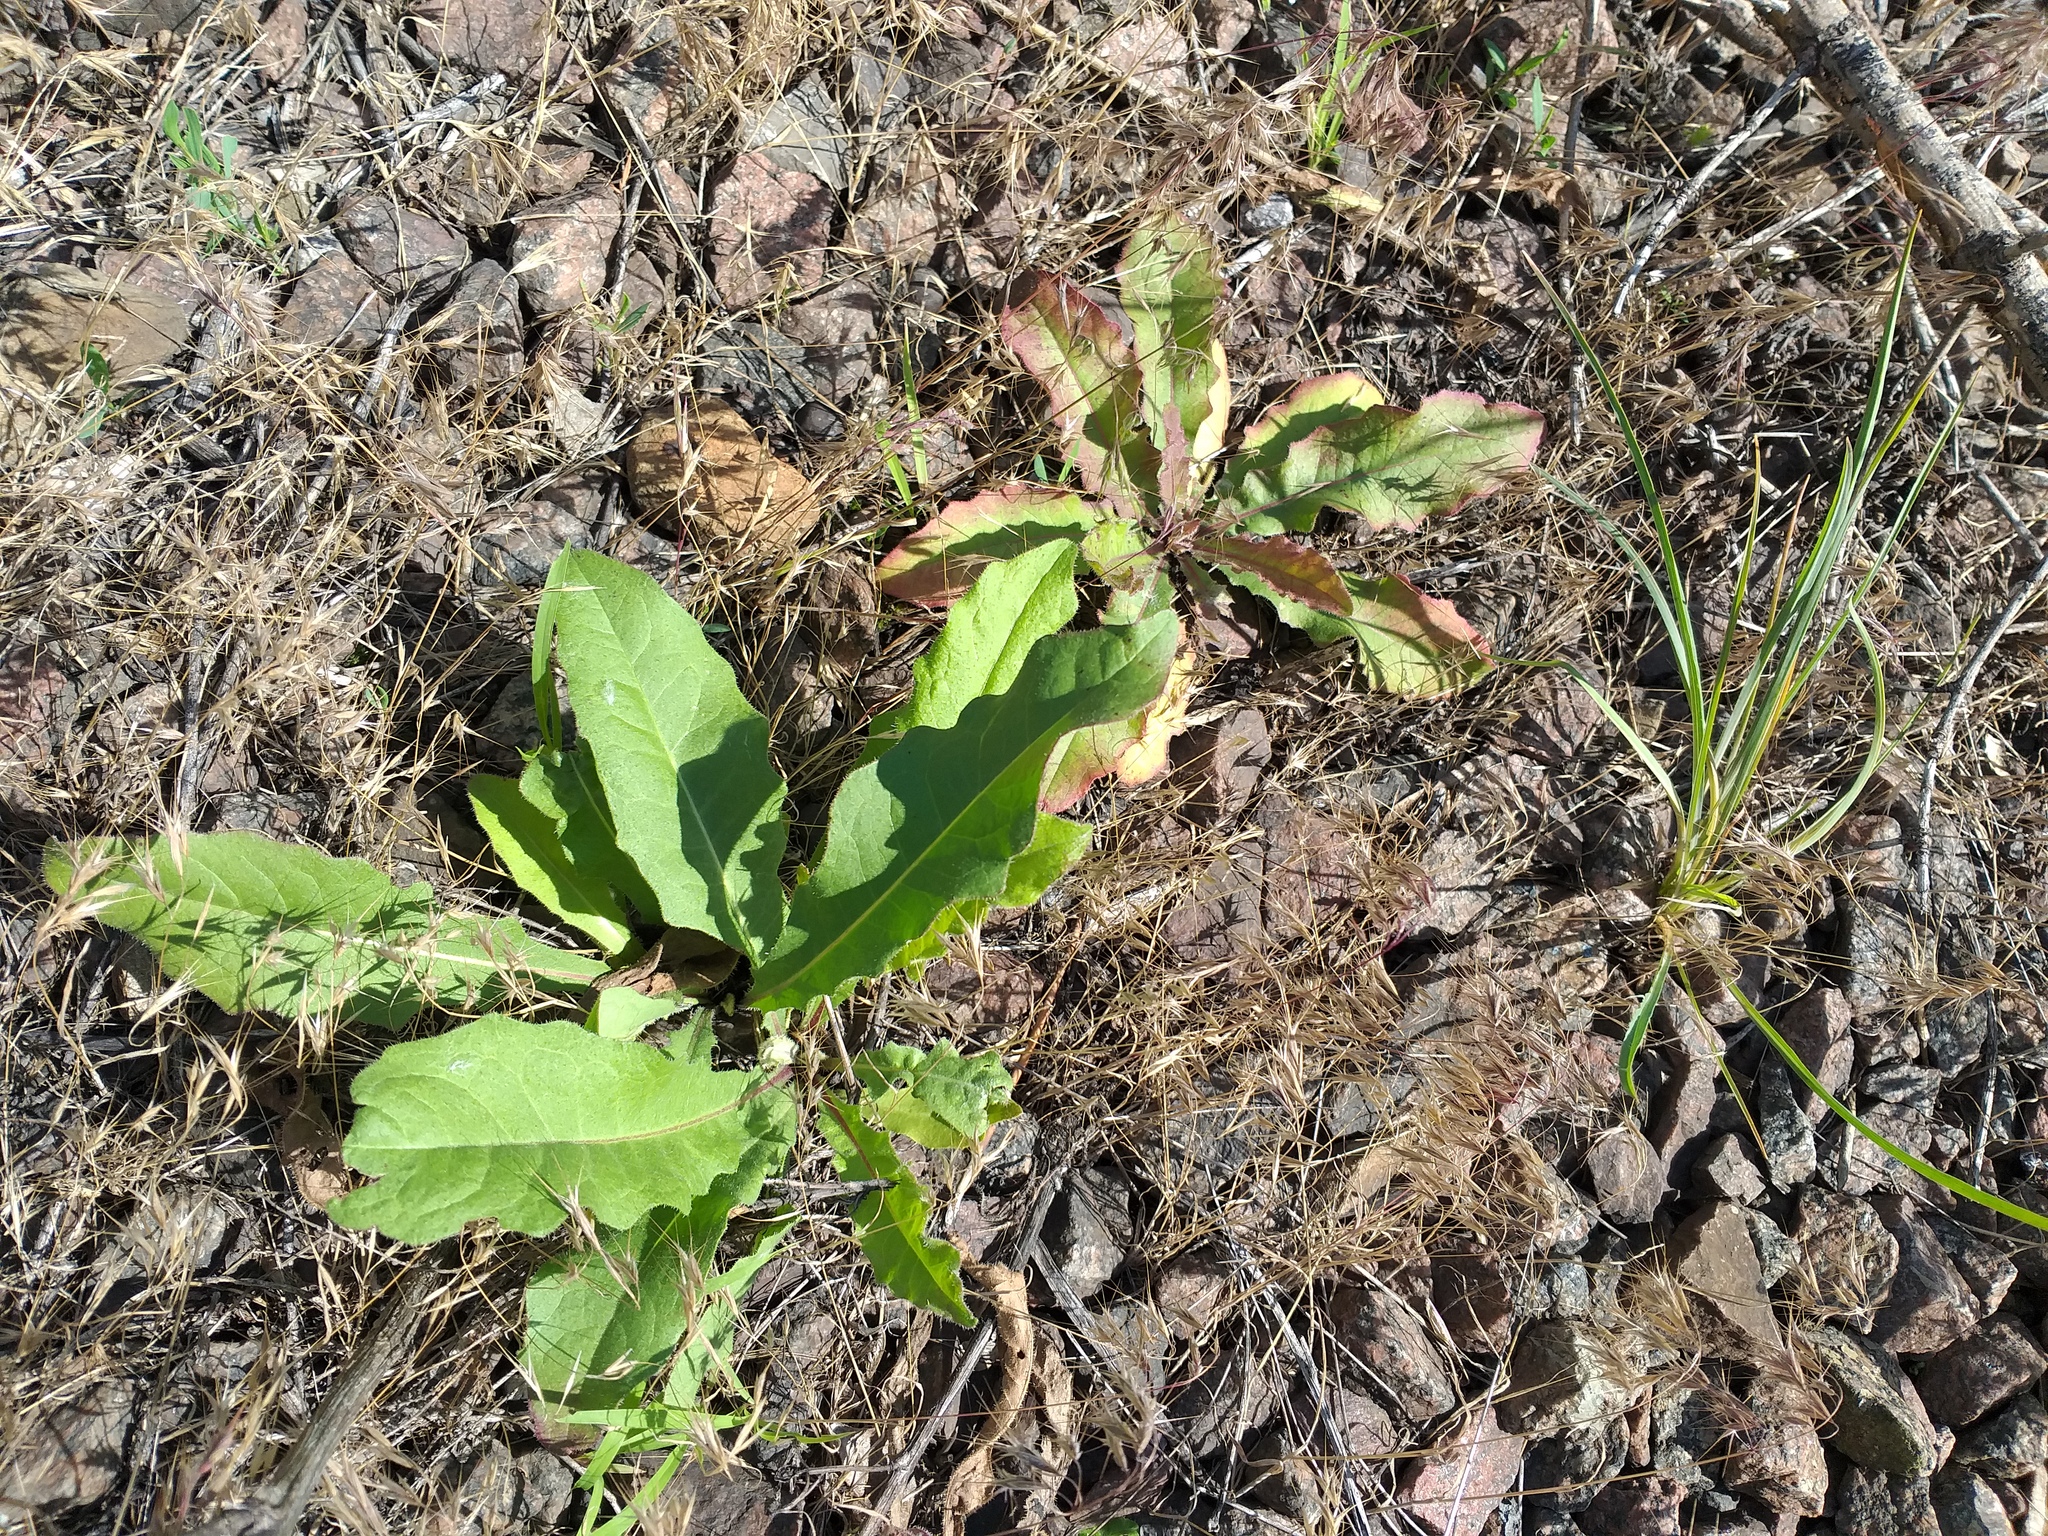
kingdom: Plantae
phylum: Tracheophyta
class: Magnoliopsida
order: Asterales
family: Asteraceae
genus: Picris
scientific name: Picris hieracioides
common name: Hawkweed oxtongue
